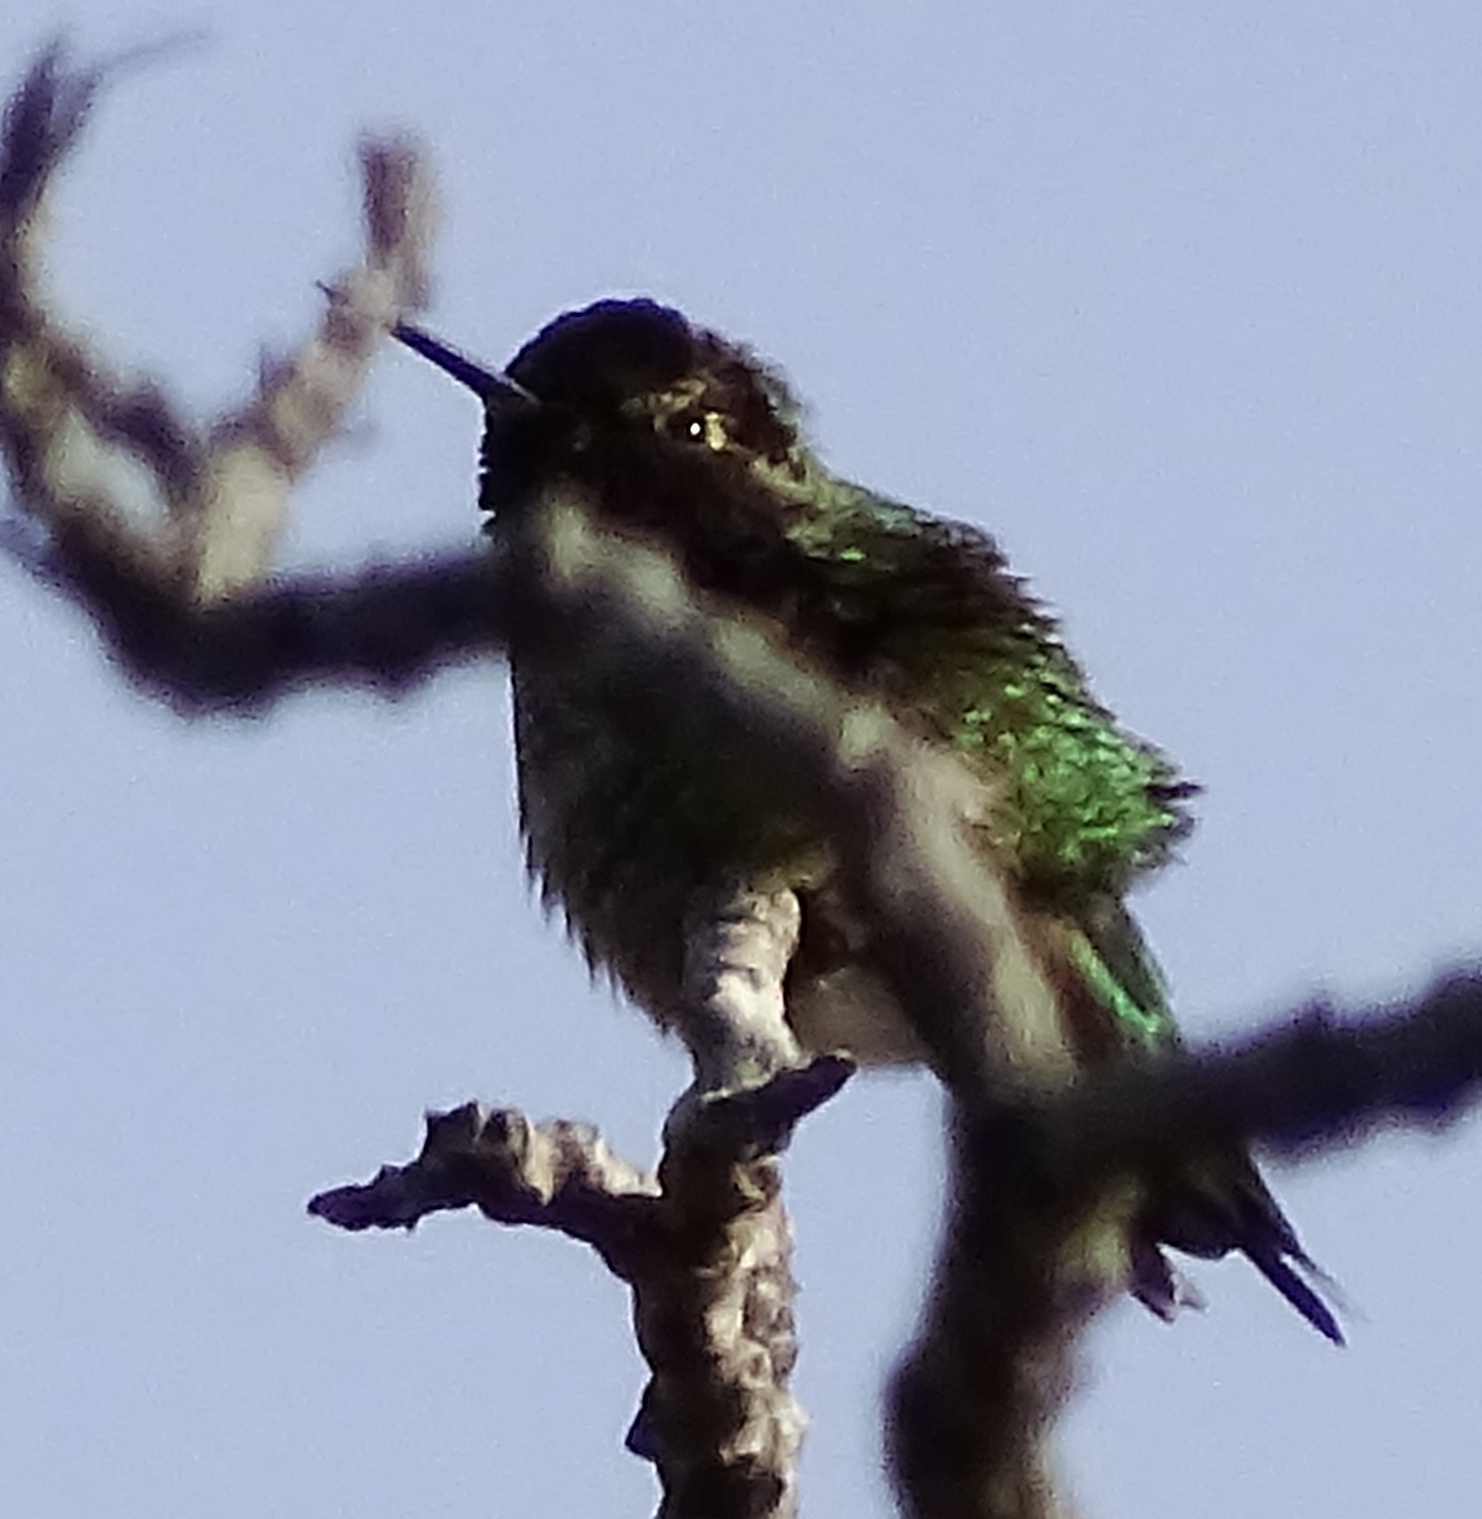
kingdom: Animalia
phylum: Chordata
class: Aves
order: Apodiformes
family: Trochilidae
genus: Calypte
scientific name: Calypte anna
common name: Anna's hummingbird
